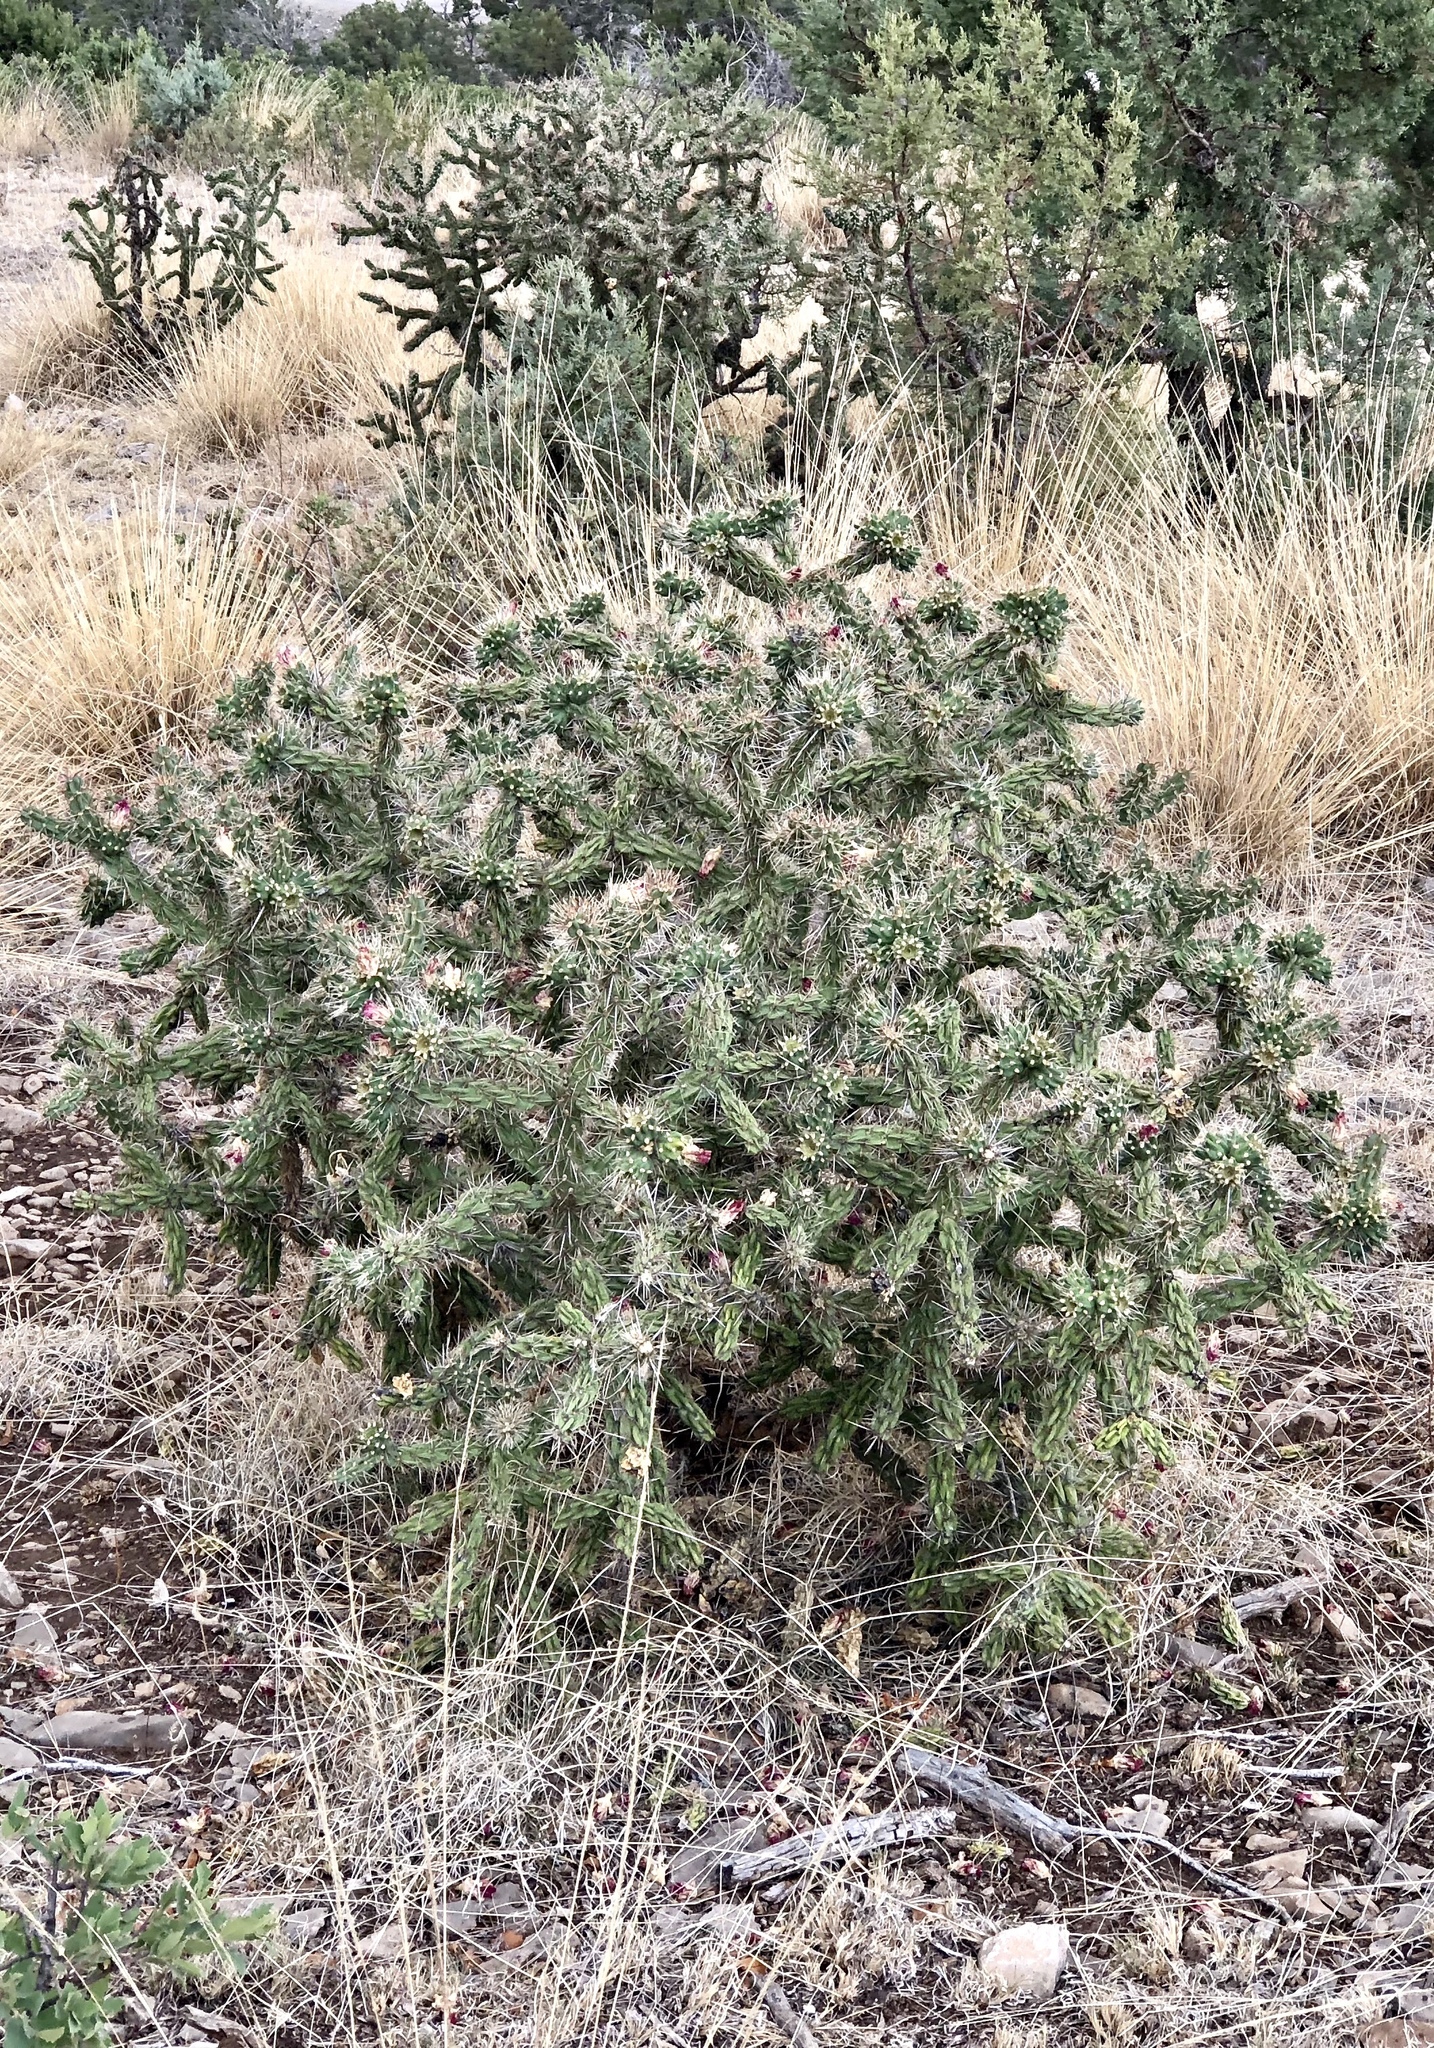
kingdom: Plantae
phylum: Tracheophyta
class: Magnoliopsida
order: Caryophyllales
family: Cactaceae
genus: Cylindropuntia
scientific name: Cylindropuntia imbricata
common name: Candelabrum cactus
